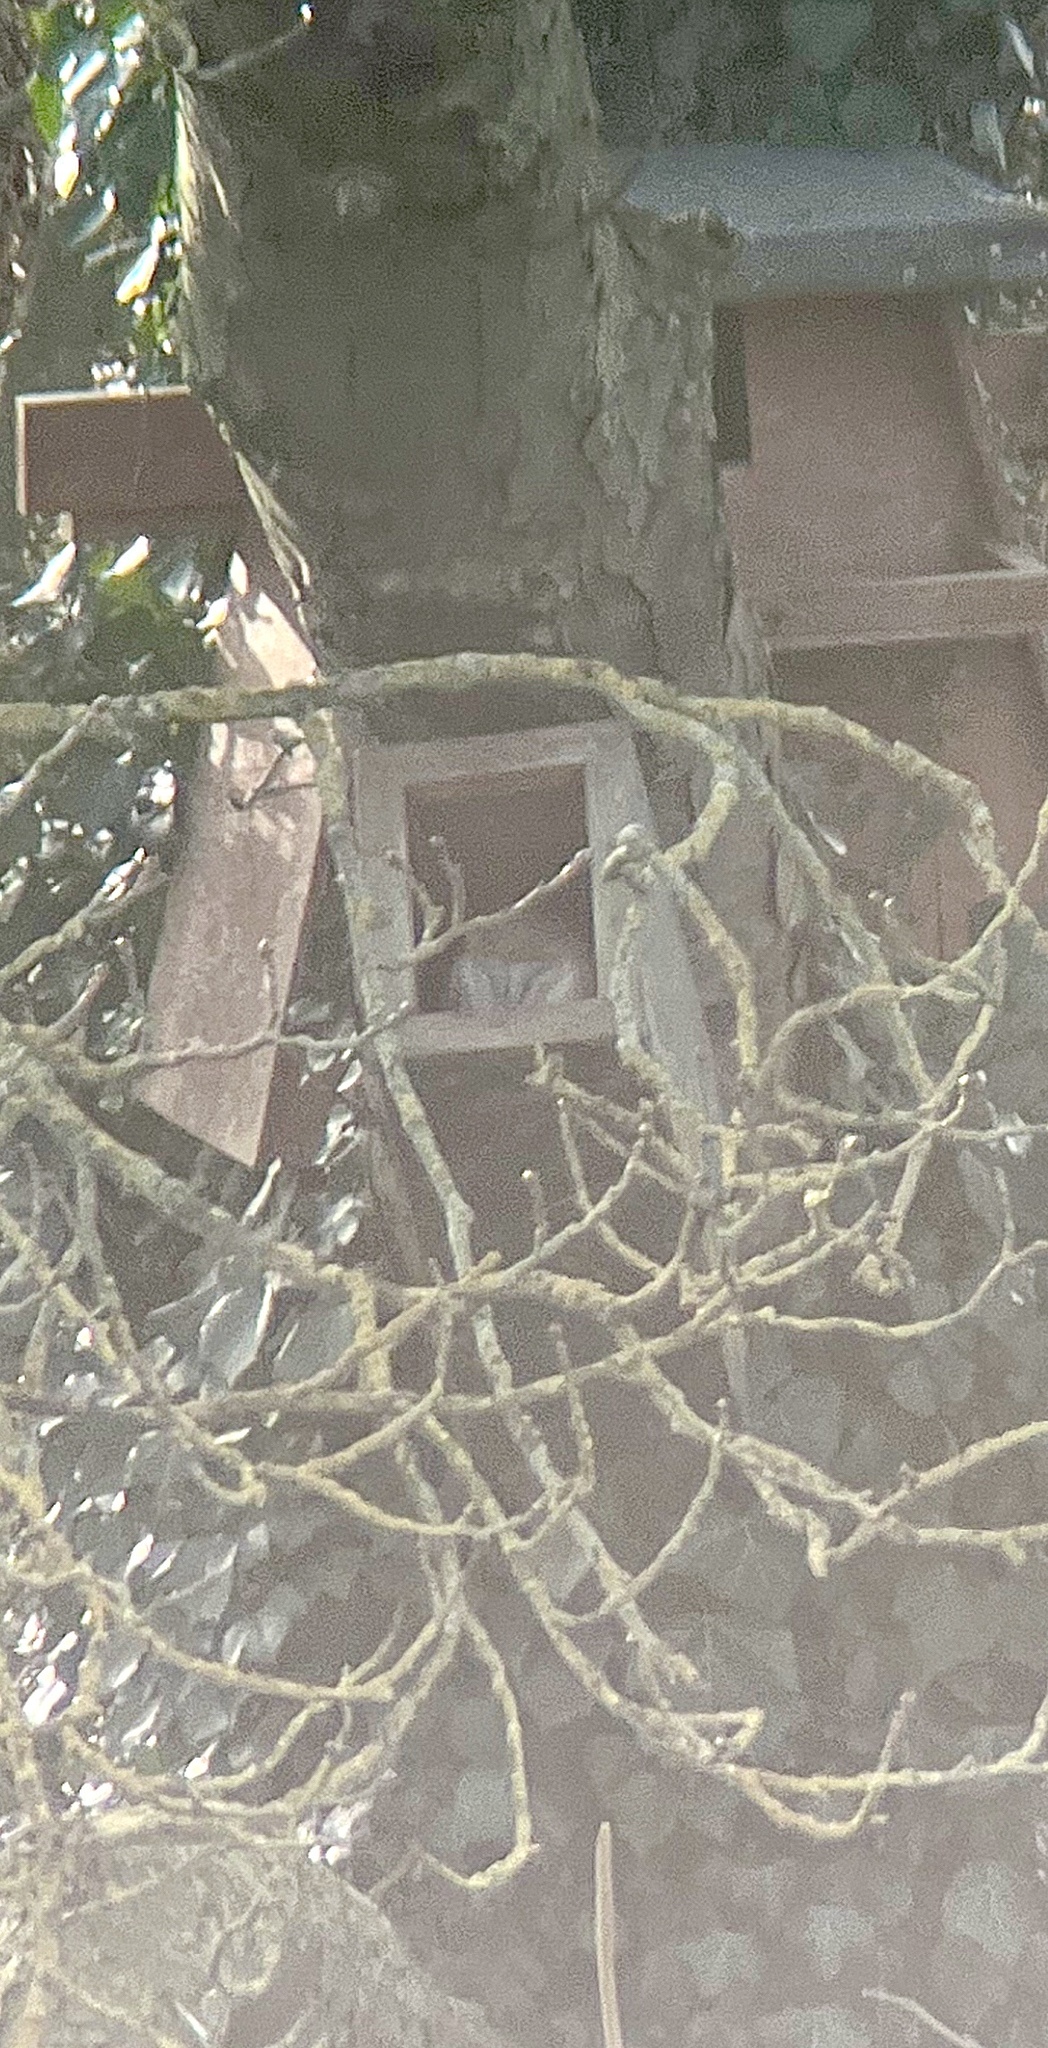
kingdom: Animalia
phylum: Chordata
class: Aves
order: Strigiformes
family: Tytonidae
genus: Tyto
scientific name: Tyto alba
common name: Barn owl
